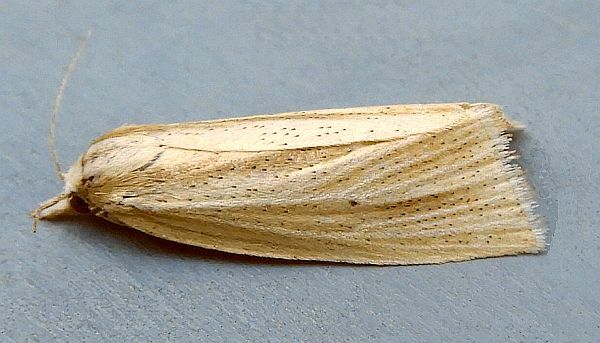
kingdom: Animalia
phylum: Arthropoda
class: Insecta
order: Lepidoptera
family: Crambidae
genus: Epina
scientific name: Epina alleni
